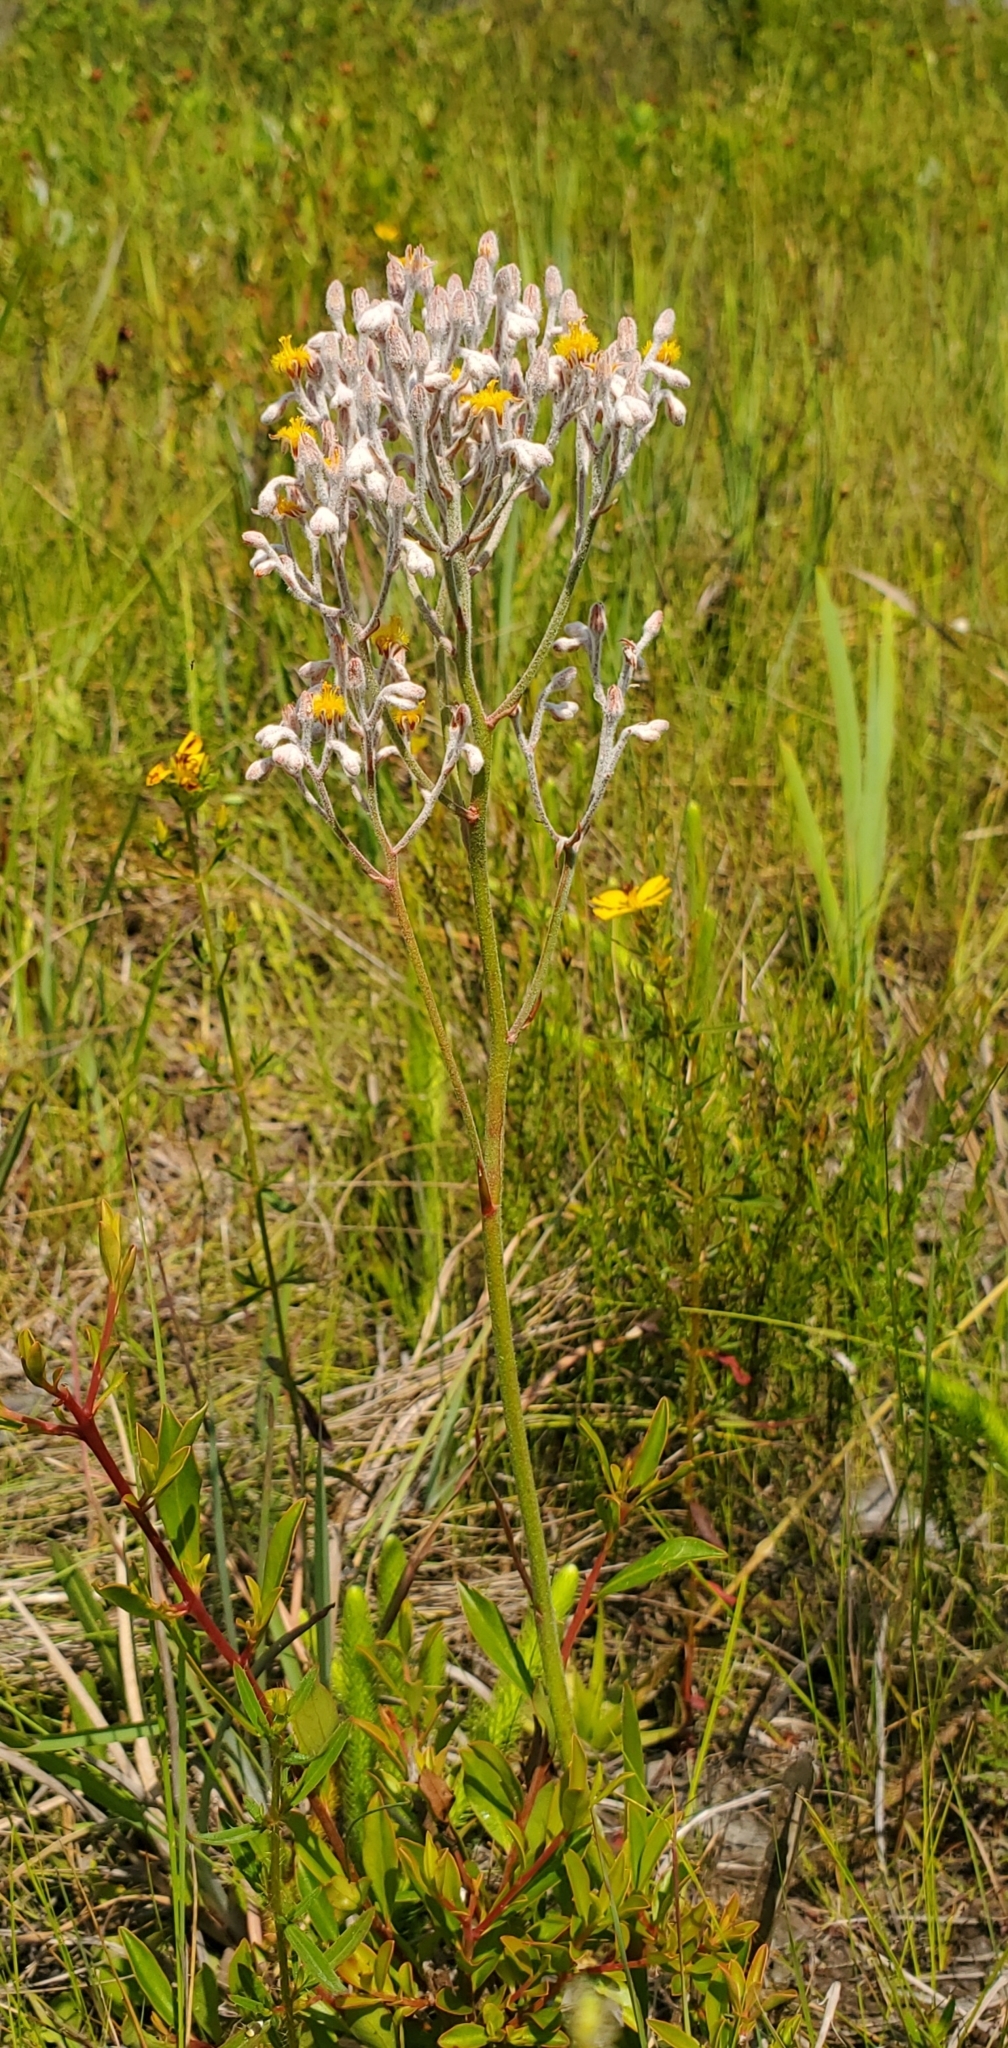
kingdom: Plantae
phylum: Tracheophyta
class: Liliopsida
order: Dioscoreales
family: Nartheciaceae
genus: Lophiola
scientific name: Lophiola aurea
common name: Golden-crest
